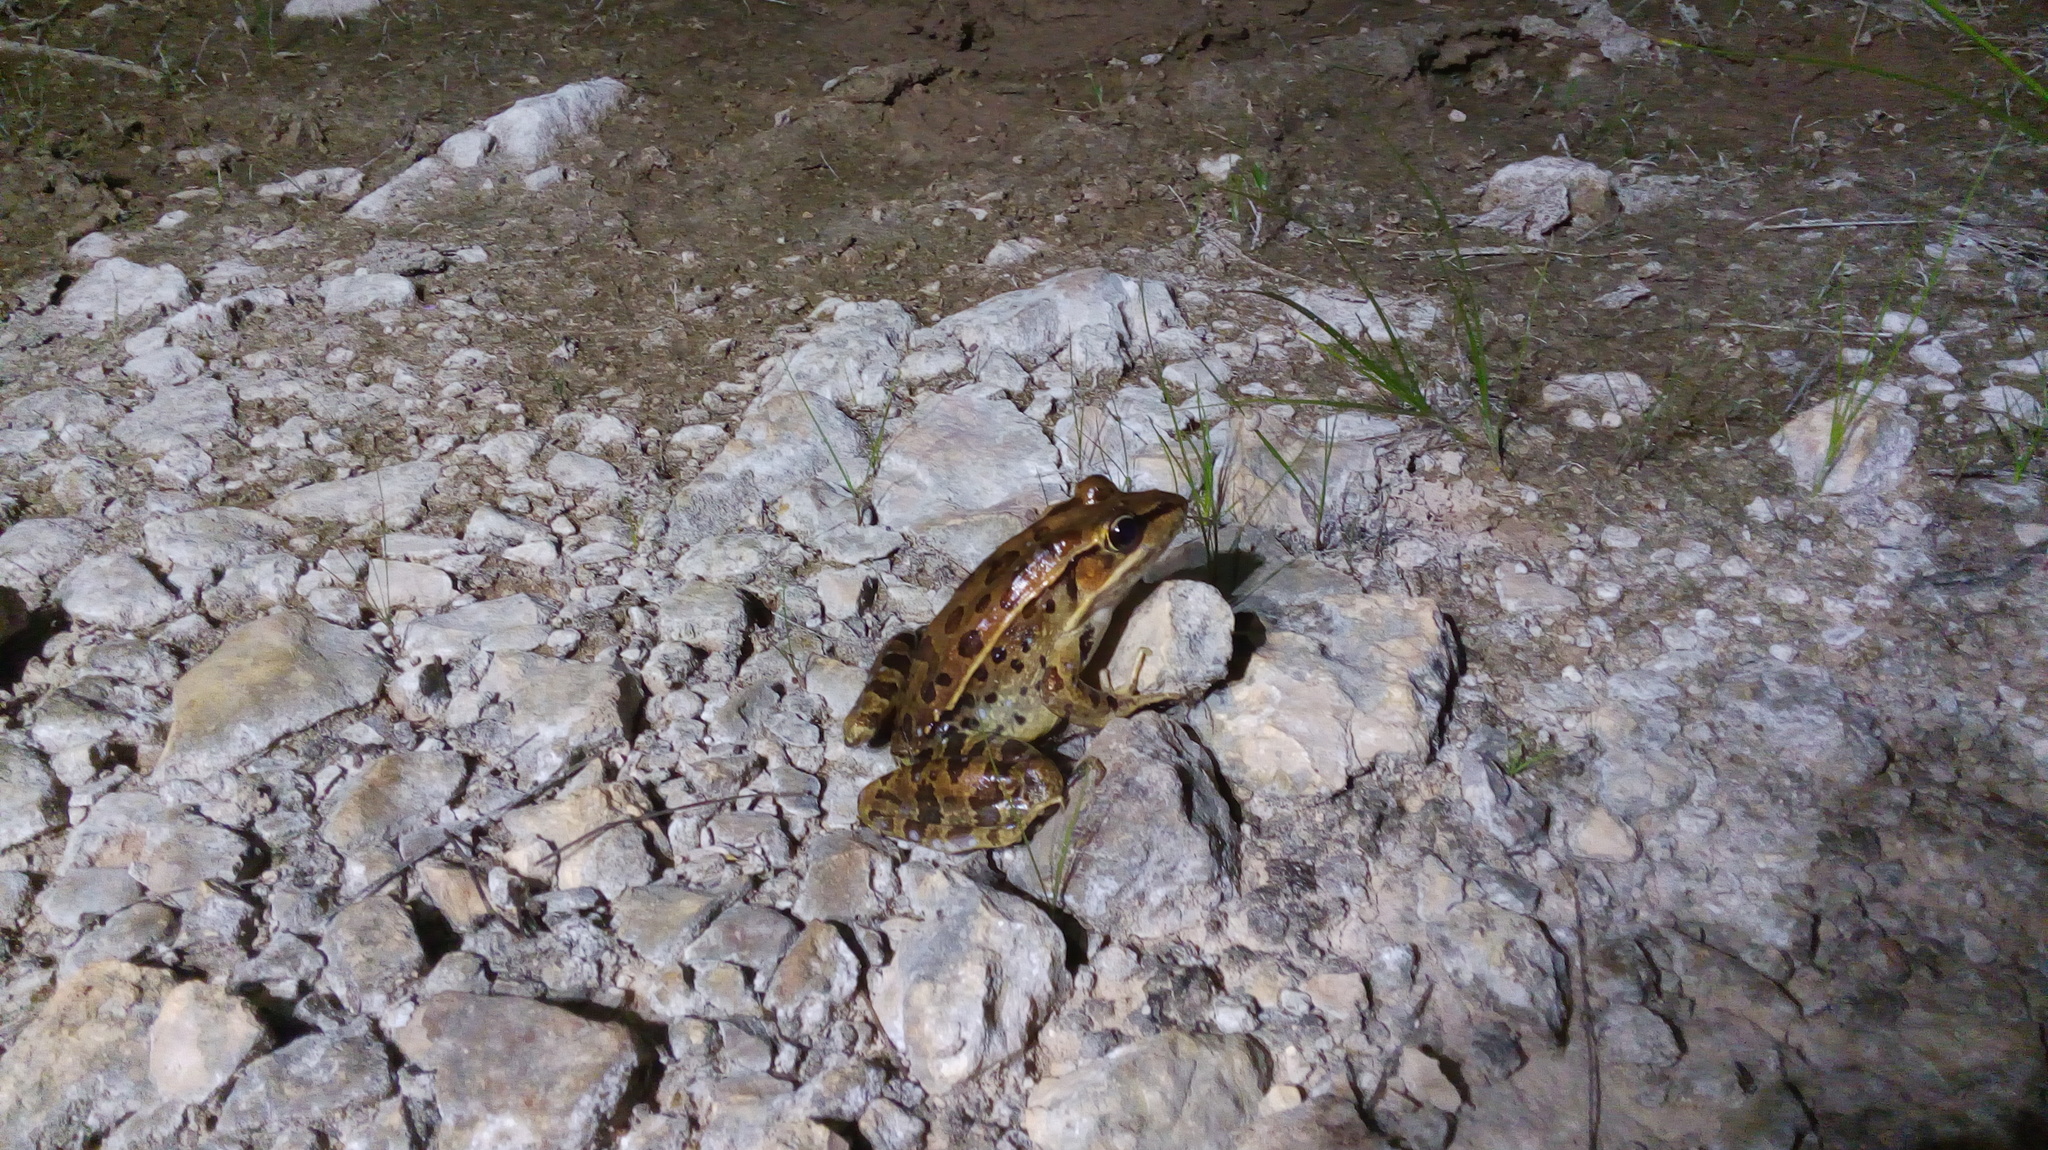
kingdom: Animalia
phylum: Chordata
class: Amphibia
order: Anura
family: Ranidae
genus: Lithobates
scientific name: Lithobates brownorum
